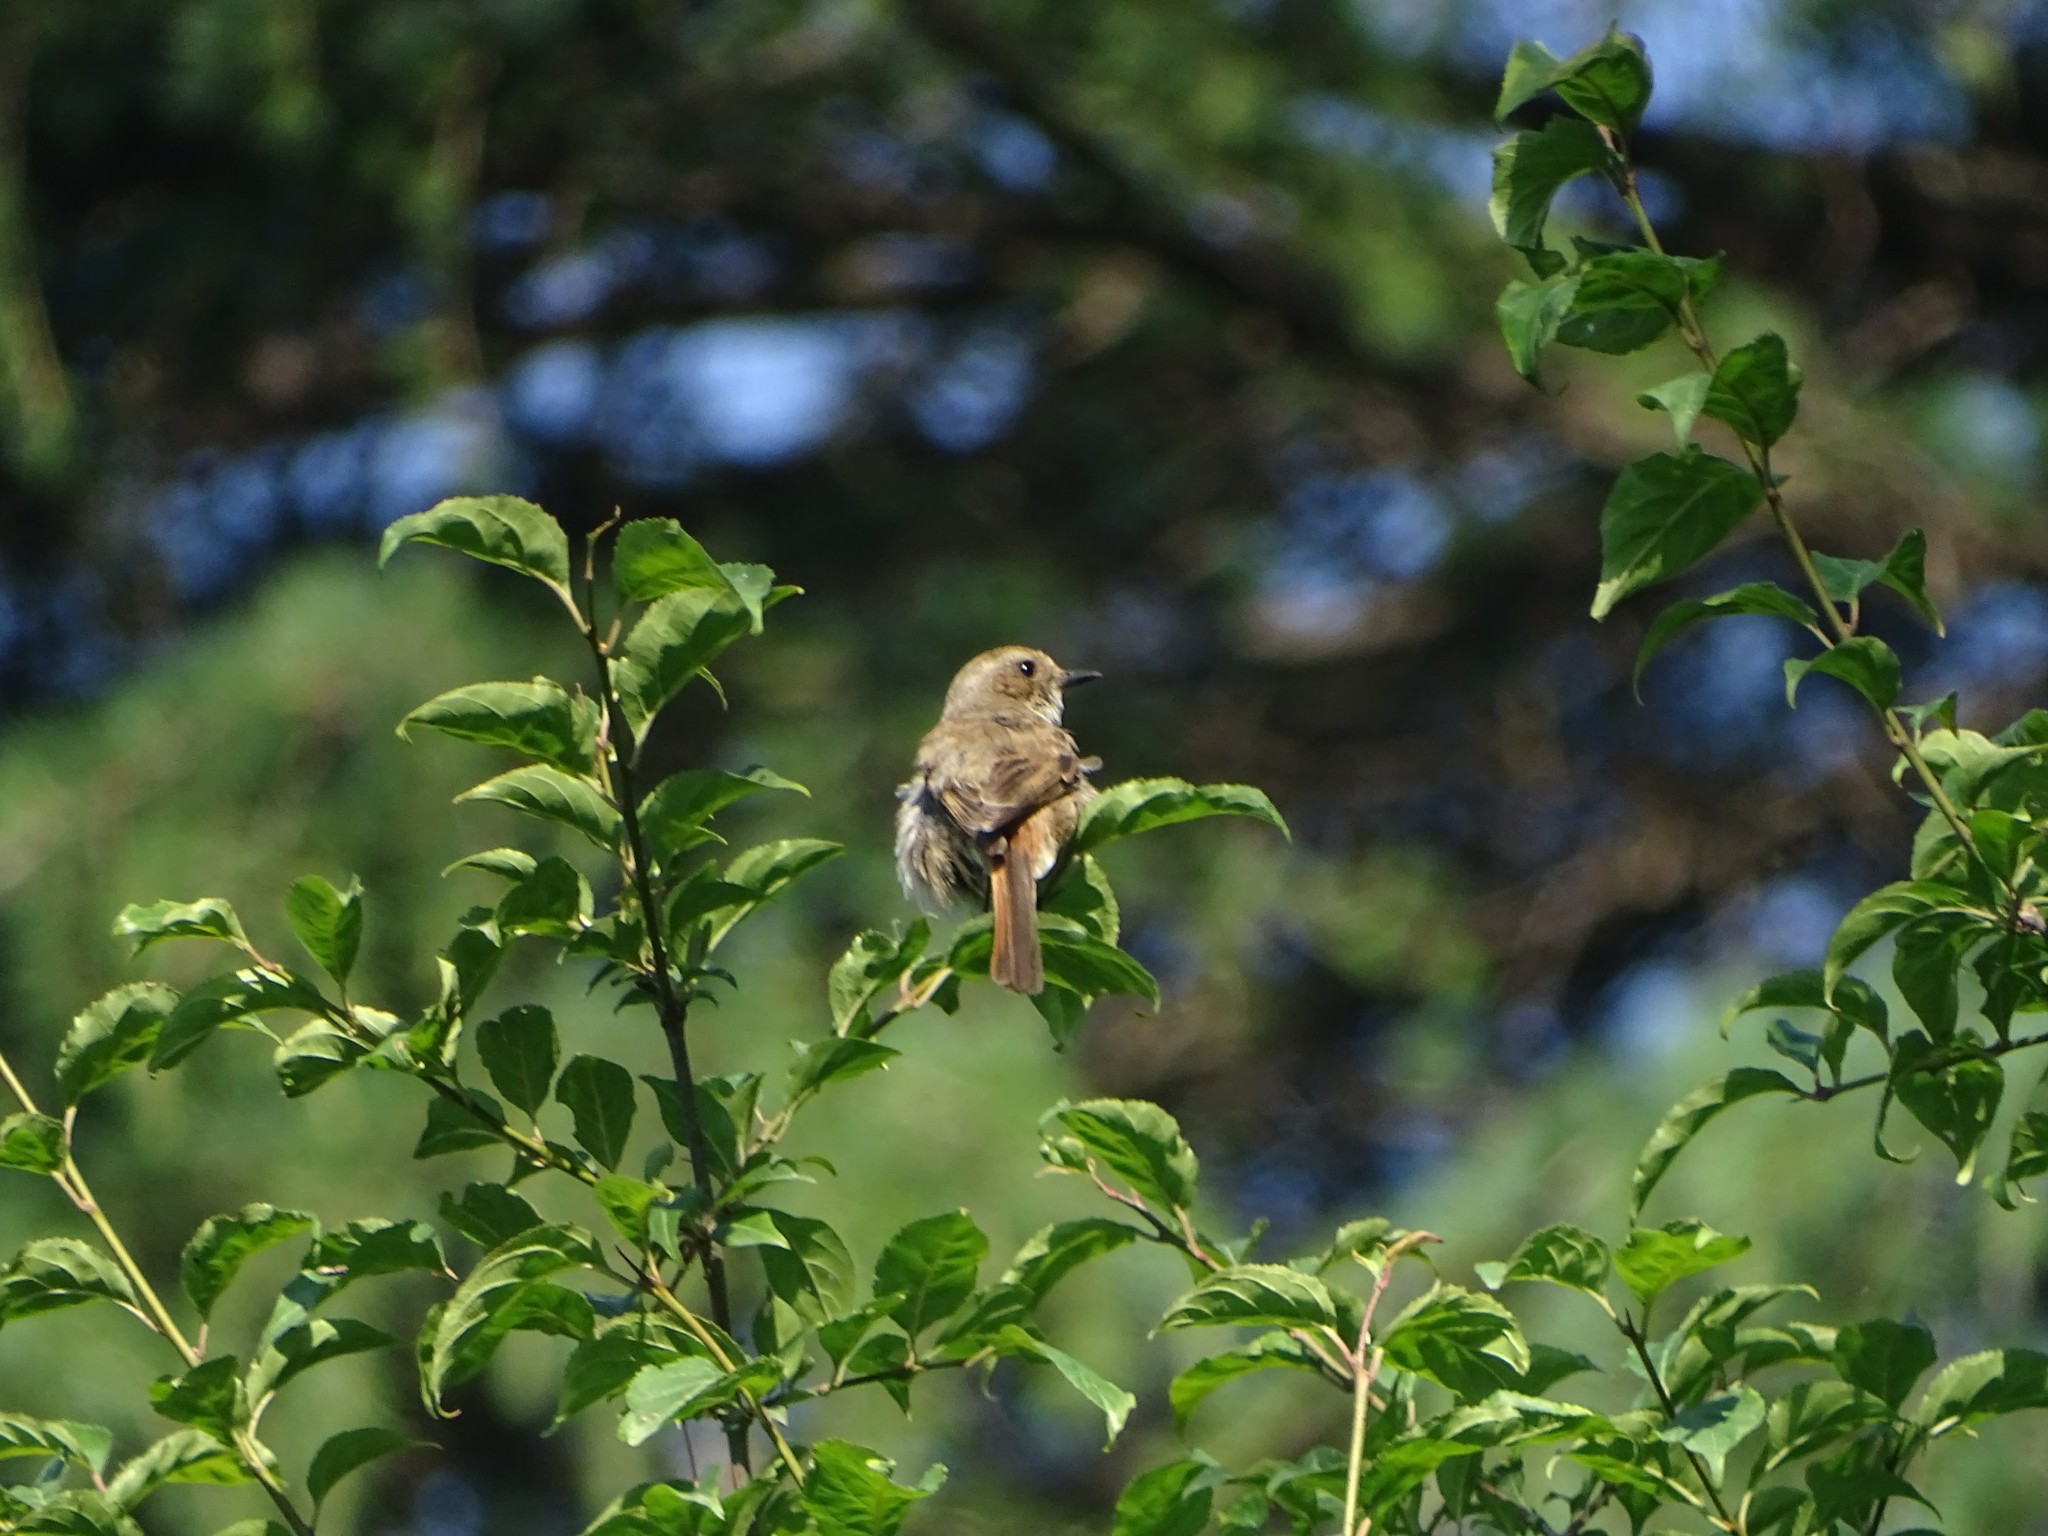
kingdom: Animalia
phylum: Chordata
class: Aves
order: Passeriformes
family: Muscicapidae
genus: Muscicapa
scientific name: Muscicapa striata
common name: Spotted flycatcher
